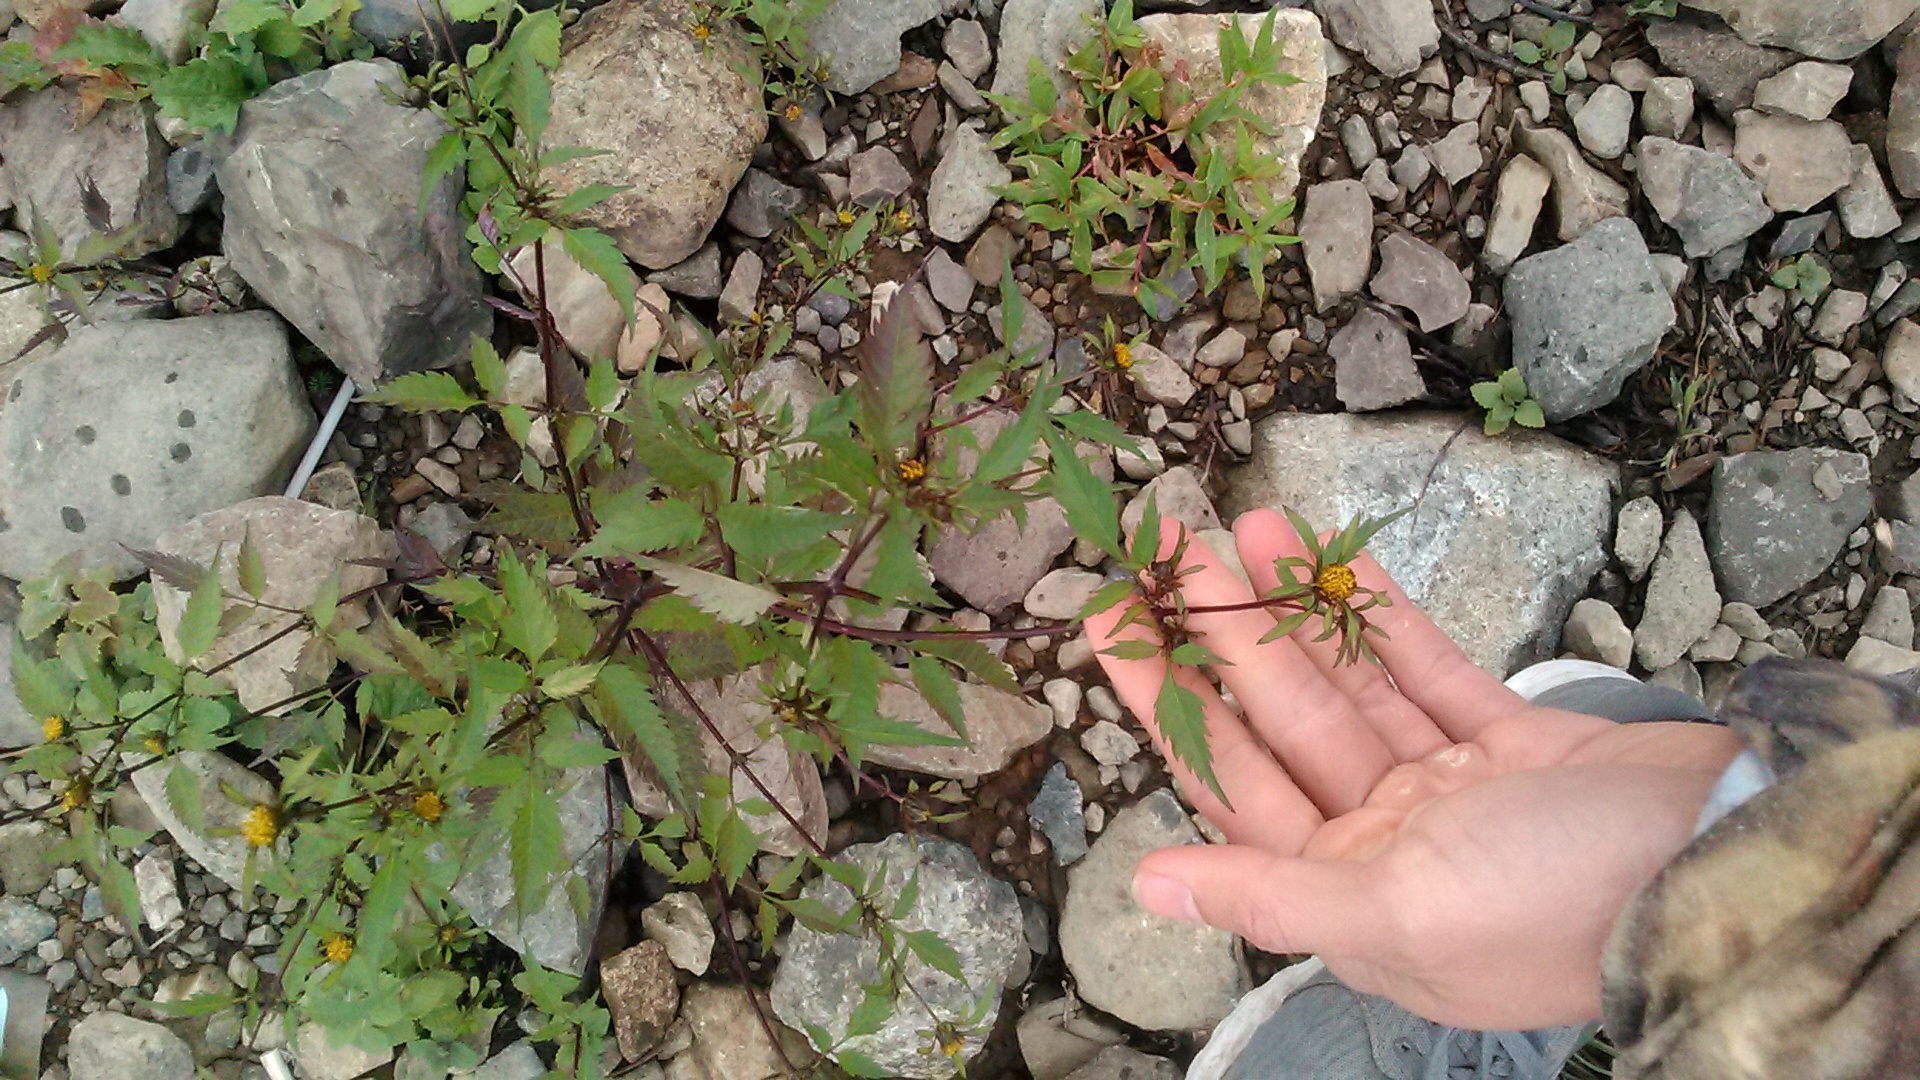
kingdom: Plantae
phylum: Tracheophyta
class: Magnoliopsida
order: Asterales
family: Asteraceae
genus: Bidens
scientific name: Bidens frondosa
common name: Beggarticks
